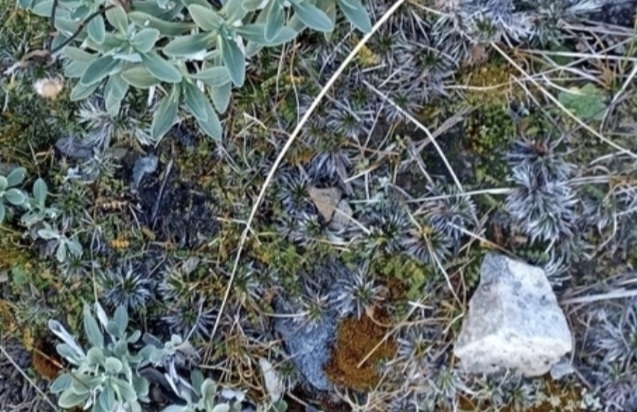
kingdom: Plantae
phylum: Tracheophyta
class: Magnoliopsida
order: Asterales
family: Asteraceae
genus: Celmisia
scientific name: Celmisia laricifolia
